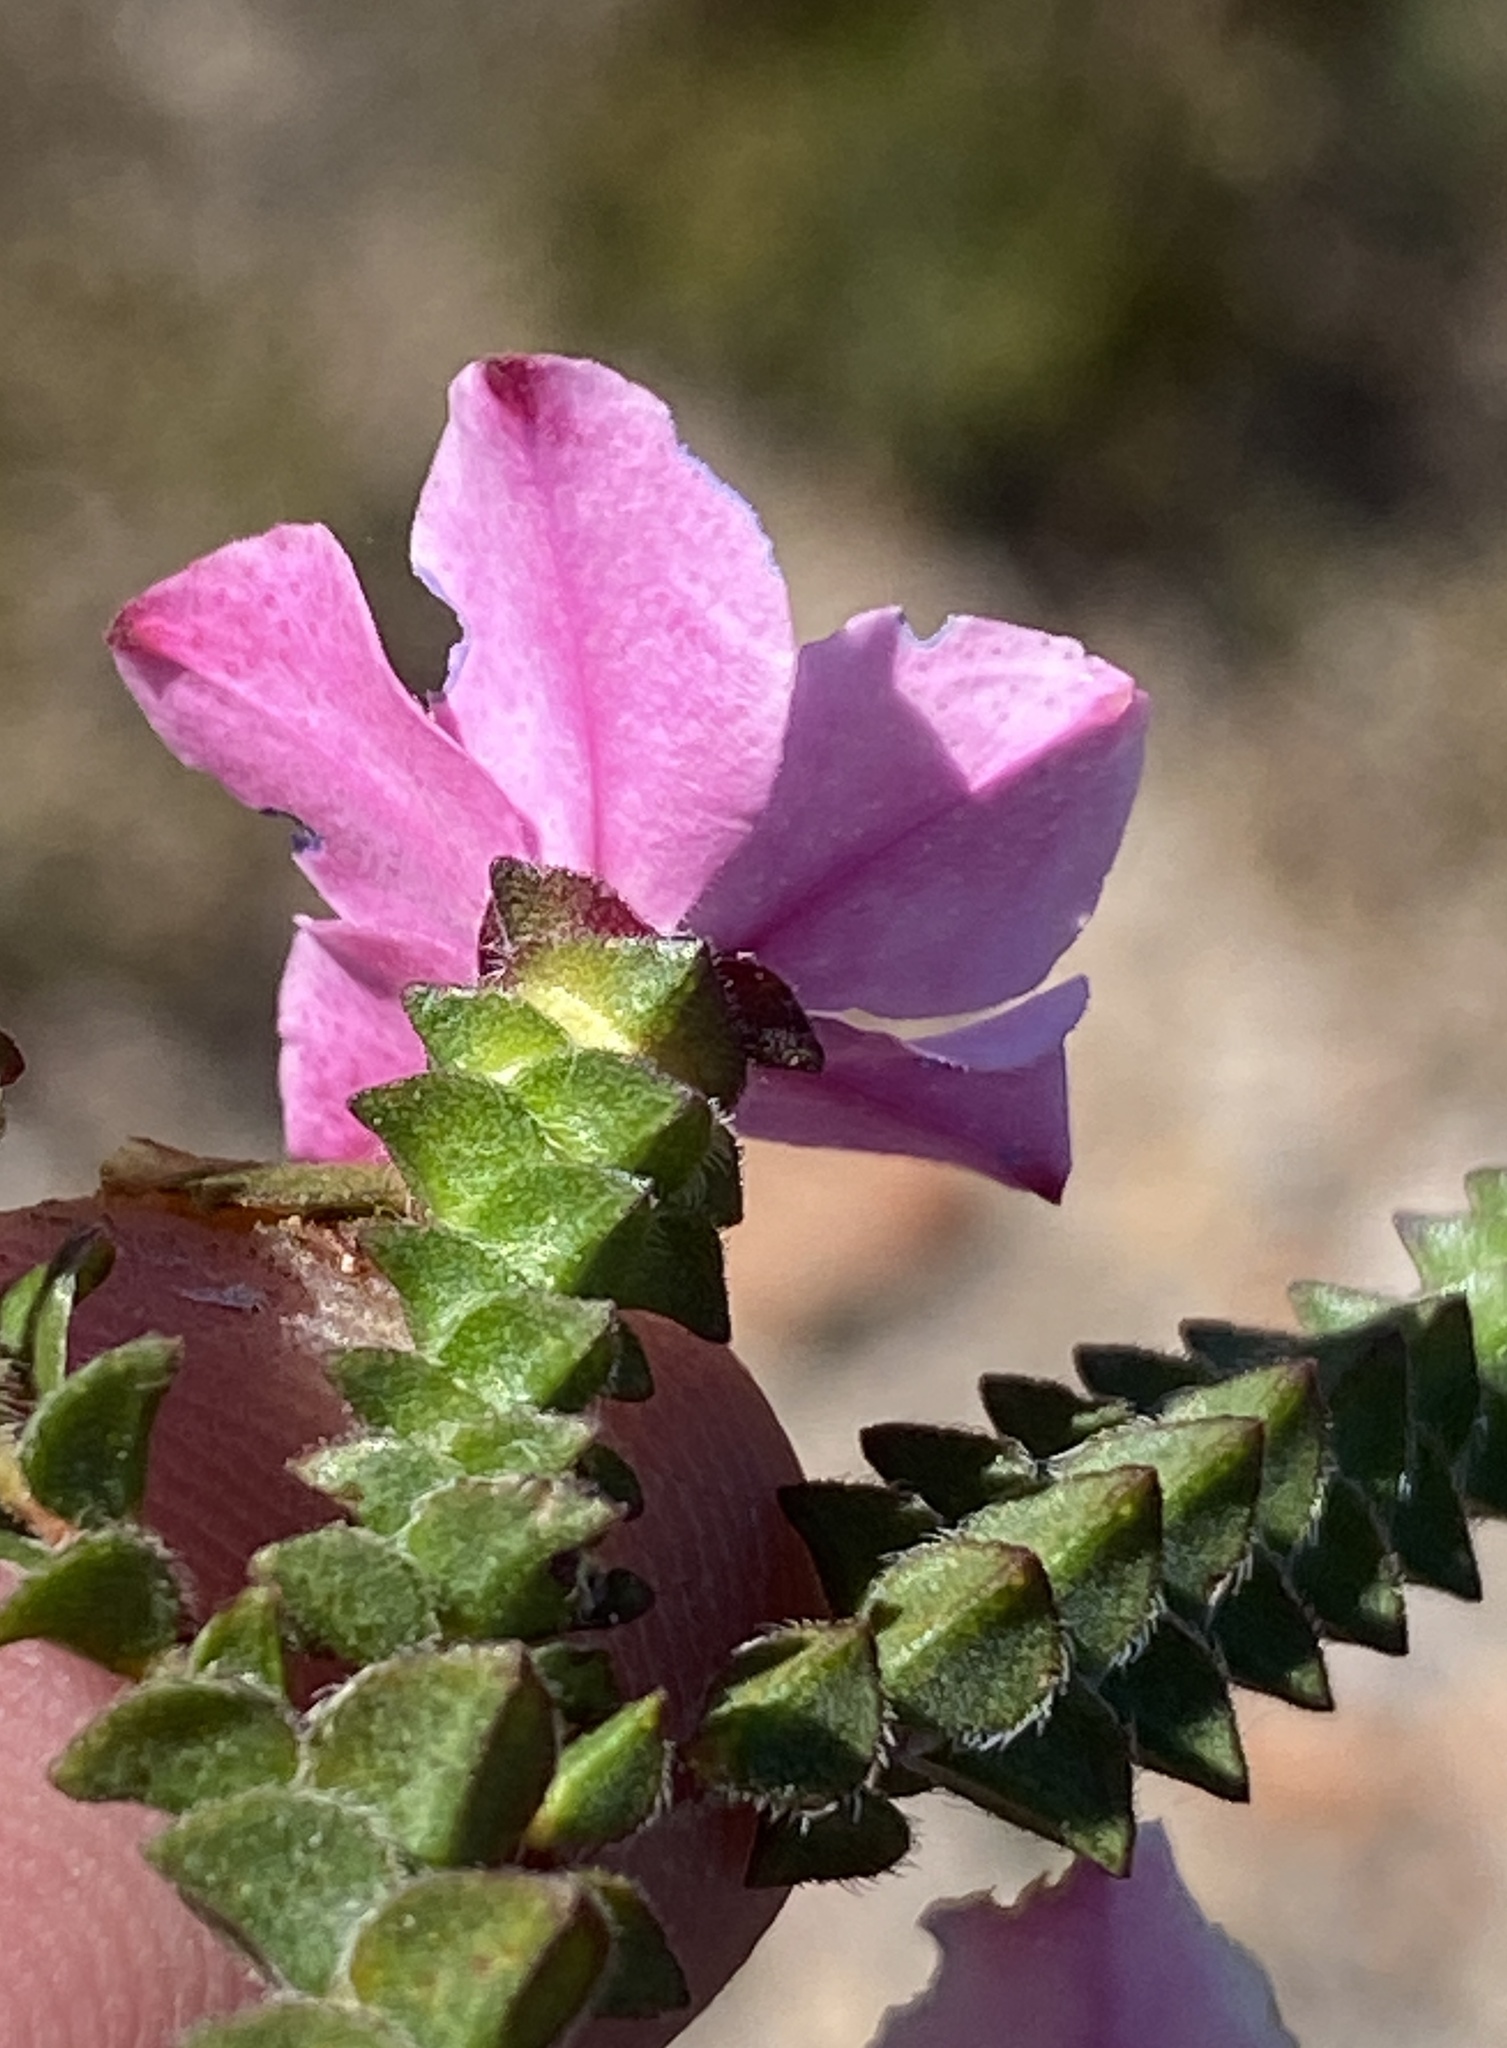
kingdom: Plantae
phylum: Tracheophyta
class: Magnoliopsida
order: Sapindales
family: Rutaceae
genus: Acmadenia
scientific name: Acmadenia tetragona
